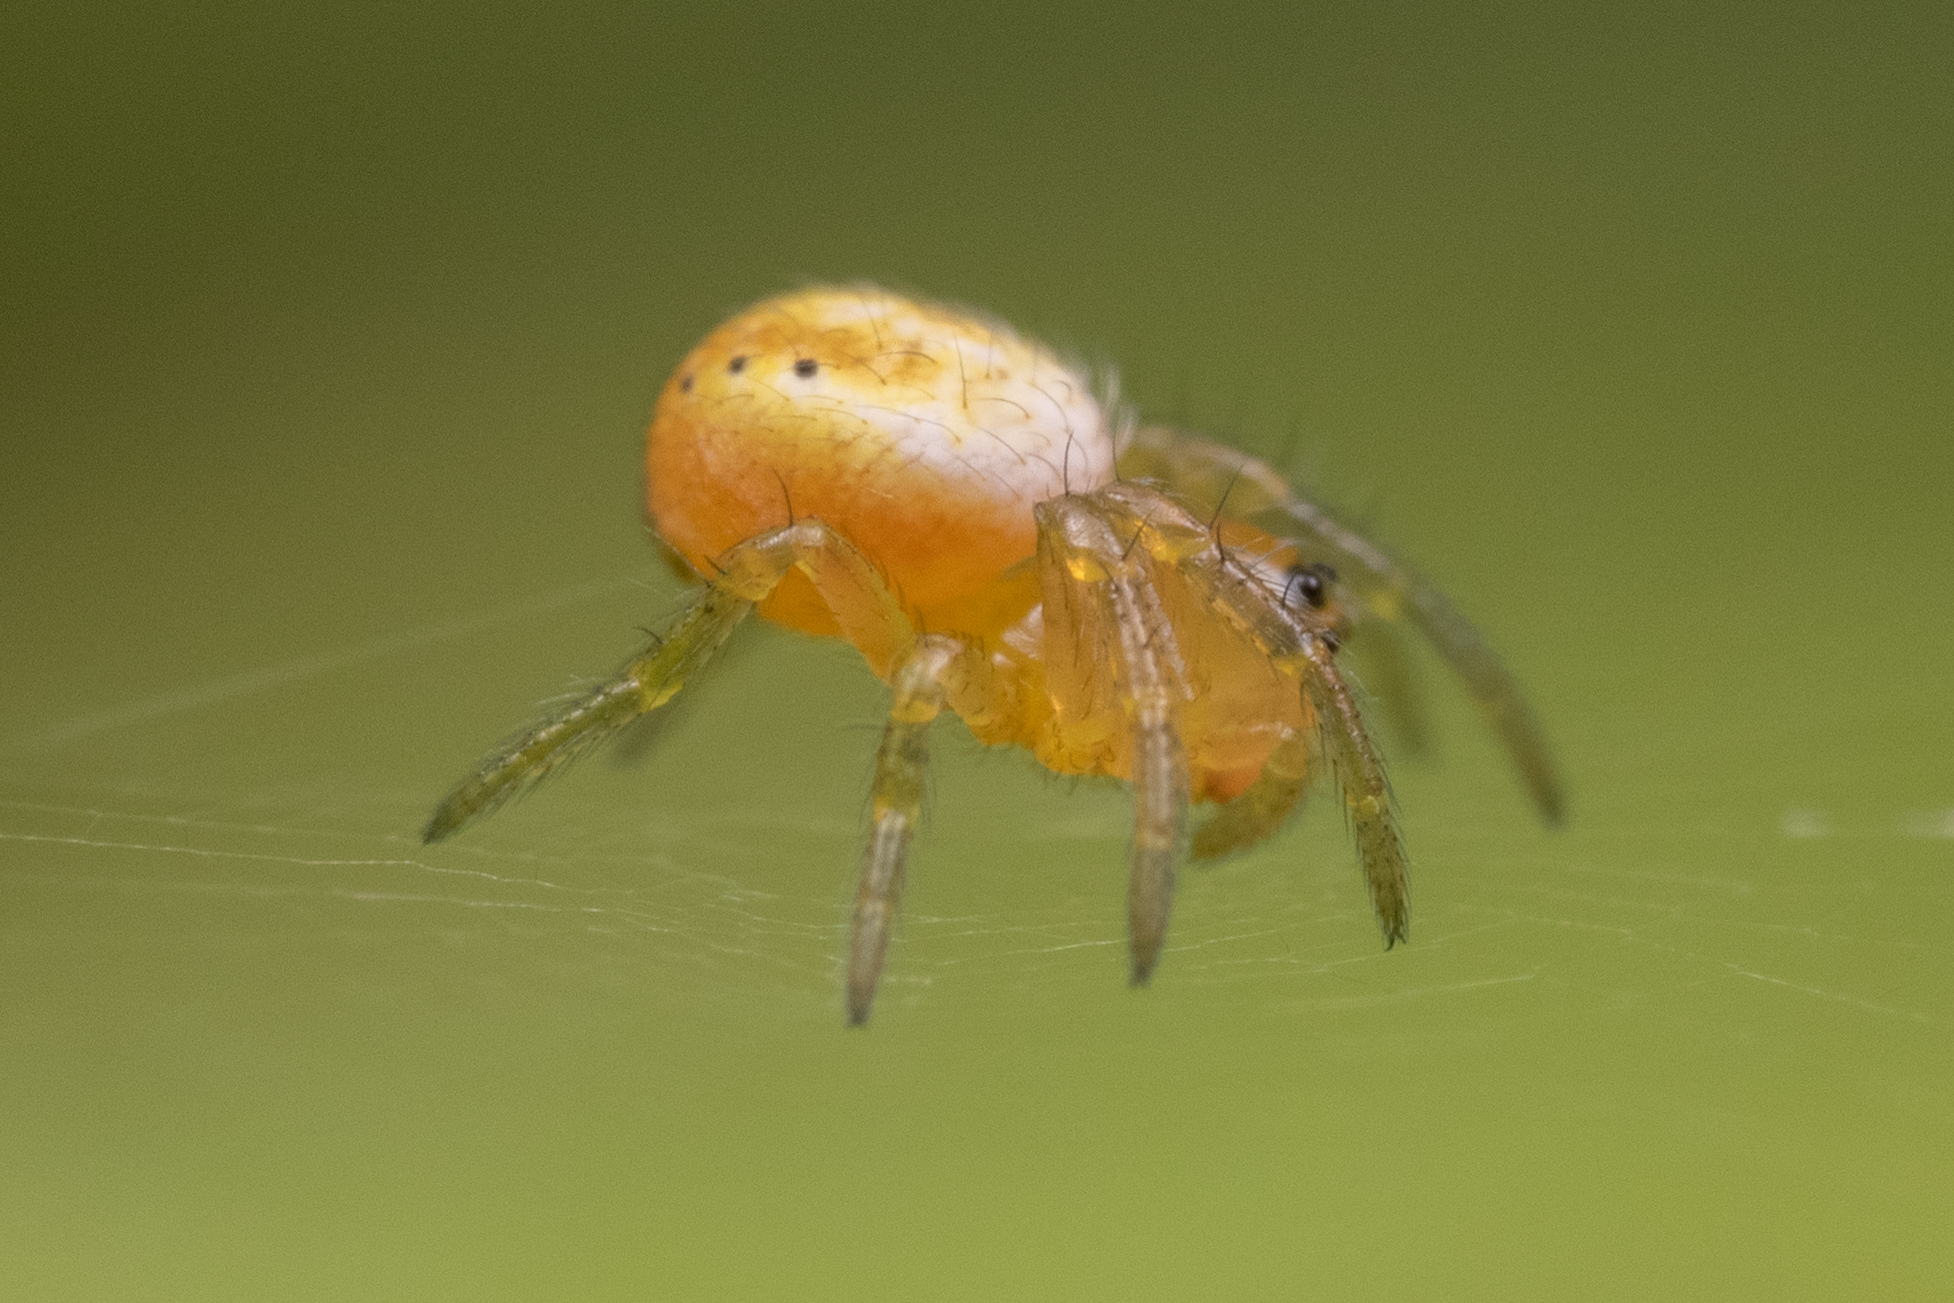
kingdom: Animalia
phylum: Arthropoda
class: Arachnida
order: Araneae
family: Araneidae
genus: Araniella
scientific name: Araniella displicata
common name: Sixspotted orb weaver
